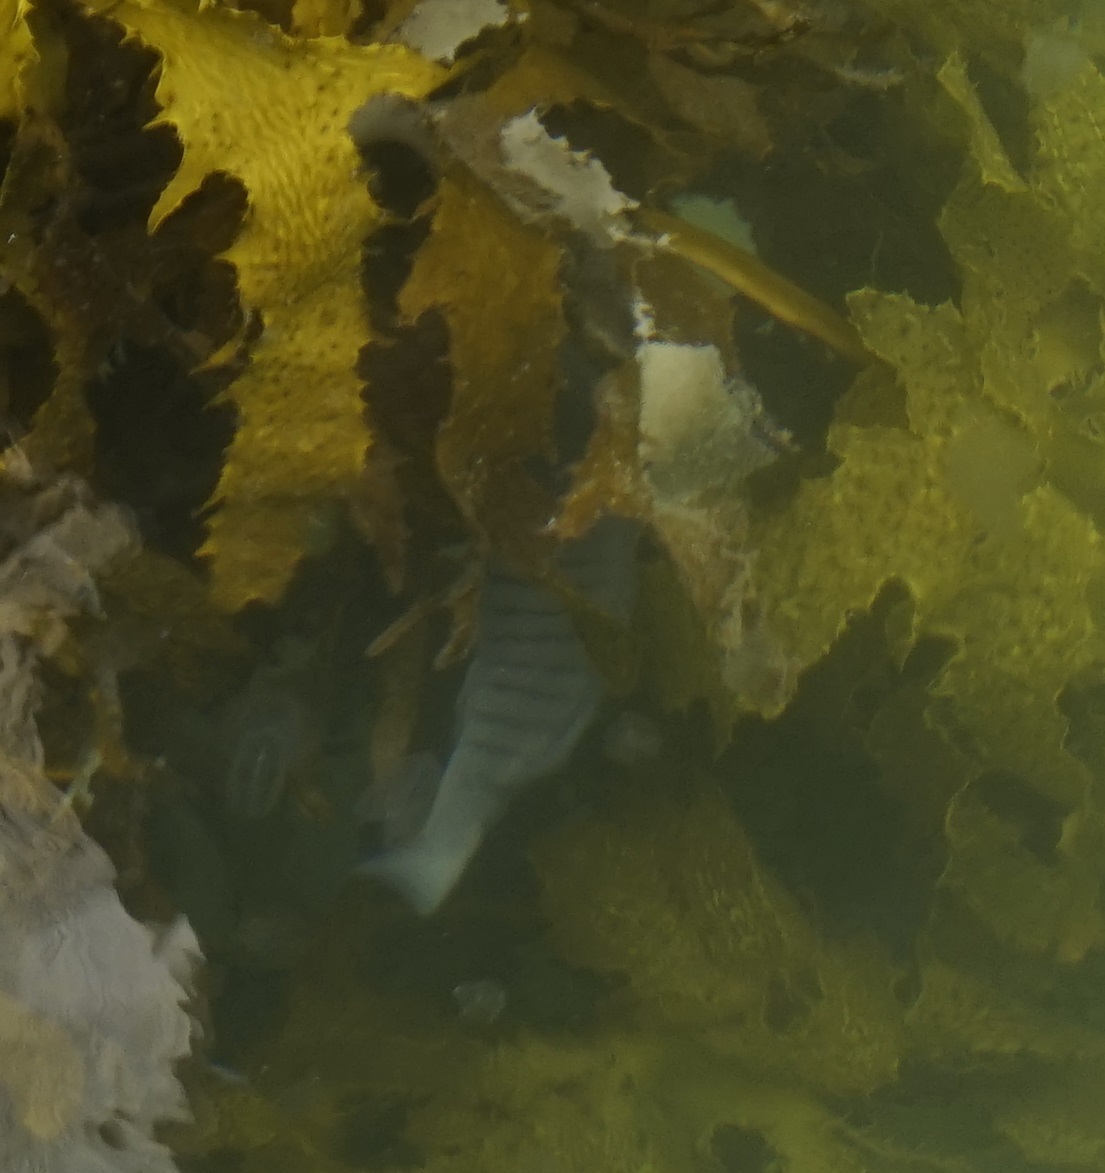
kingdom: Animalia
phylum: Chordata
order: Perciformes
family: Kyphosidae
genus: Girella
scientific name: Girella tricuspidata
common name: Parore
